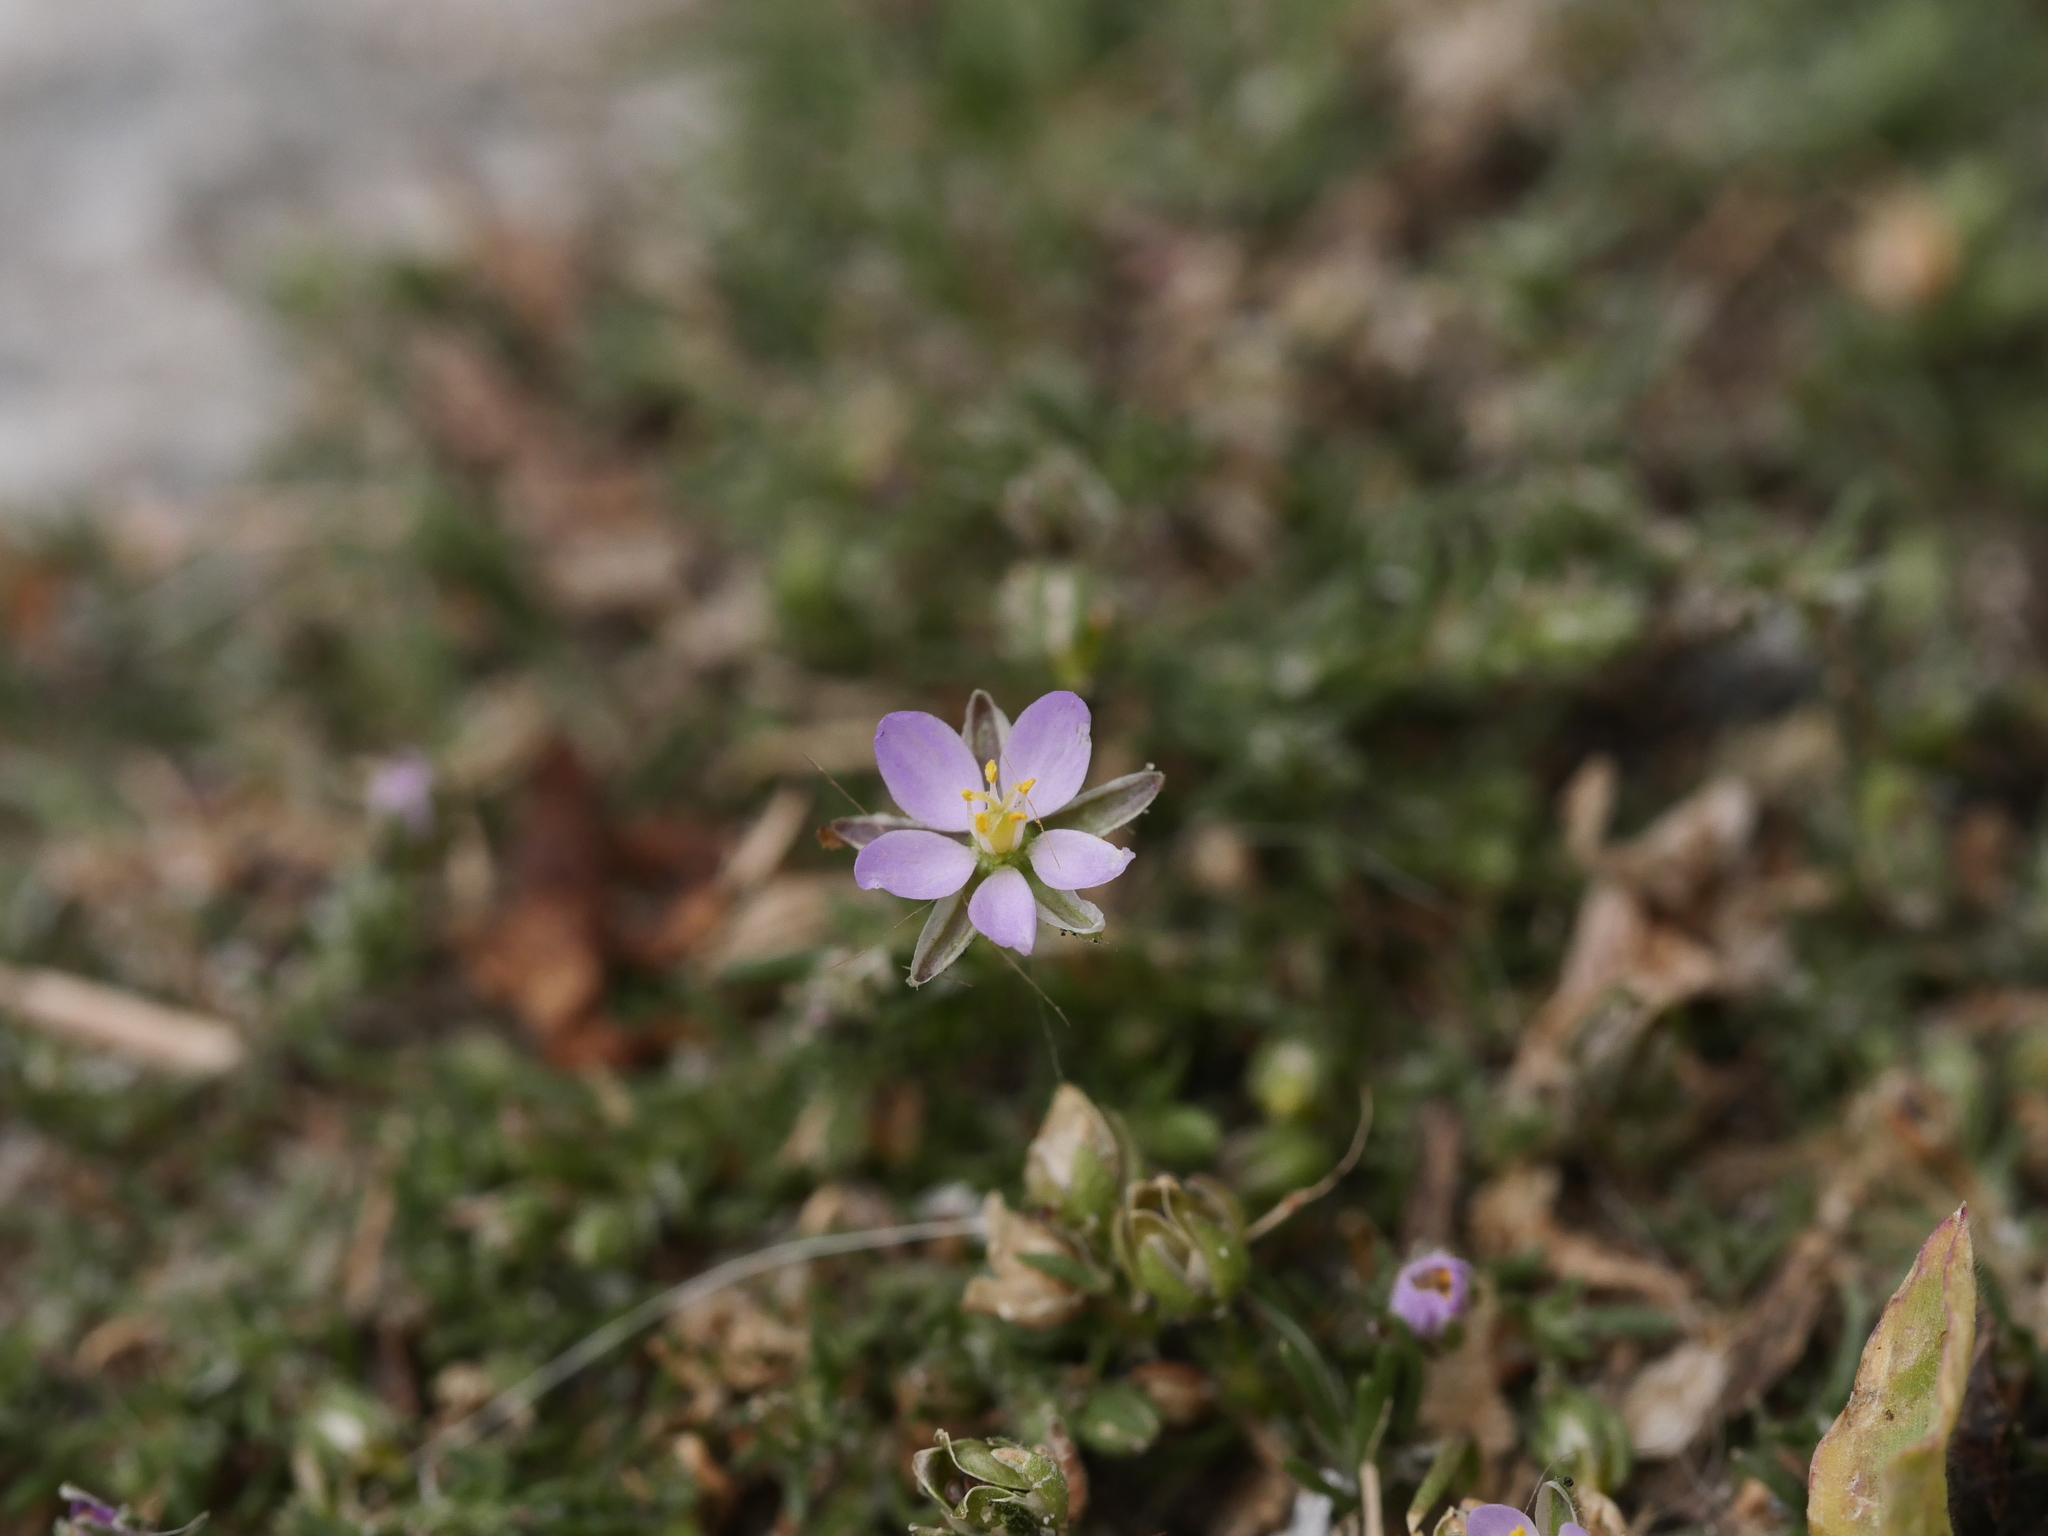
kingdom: Plantae
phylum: Tracheophyta
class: Magnoliopsida
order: Caryophyllales
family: Caryophyllaceae
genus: Spergularia
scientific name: Spergularia rubra
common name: Red sand-spurrey
